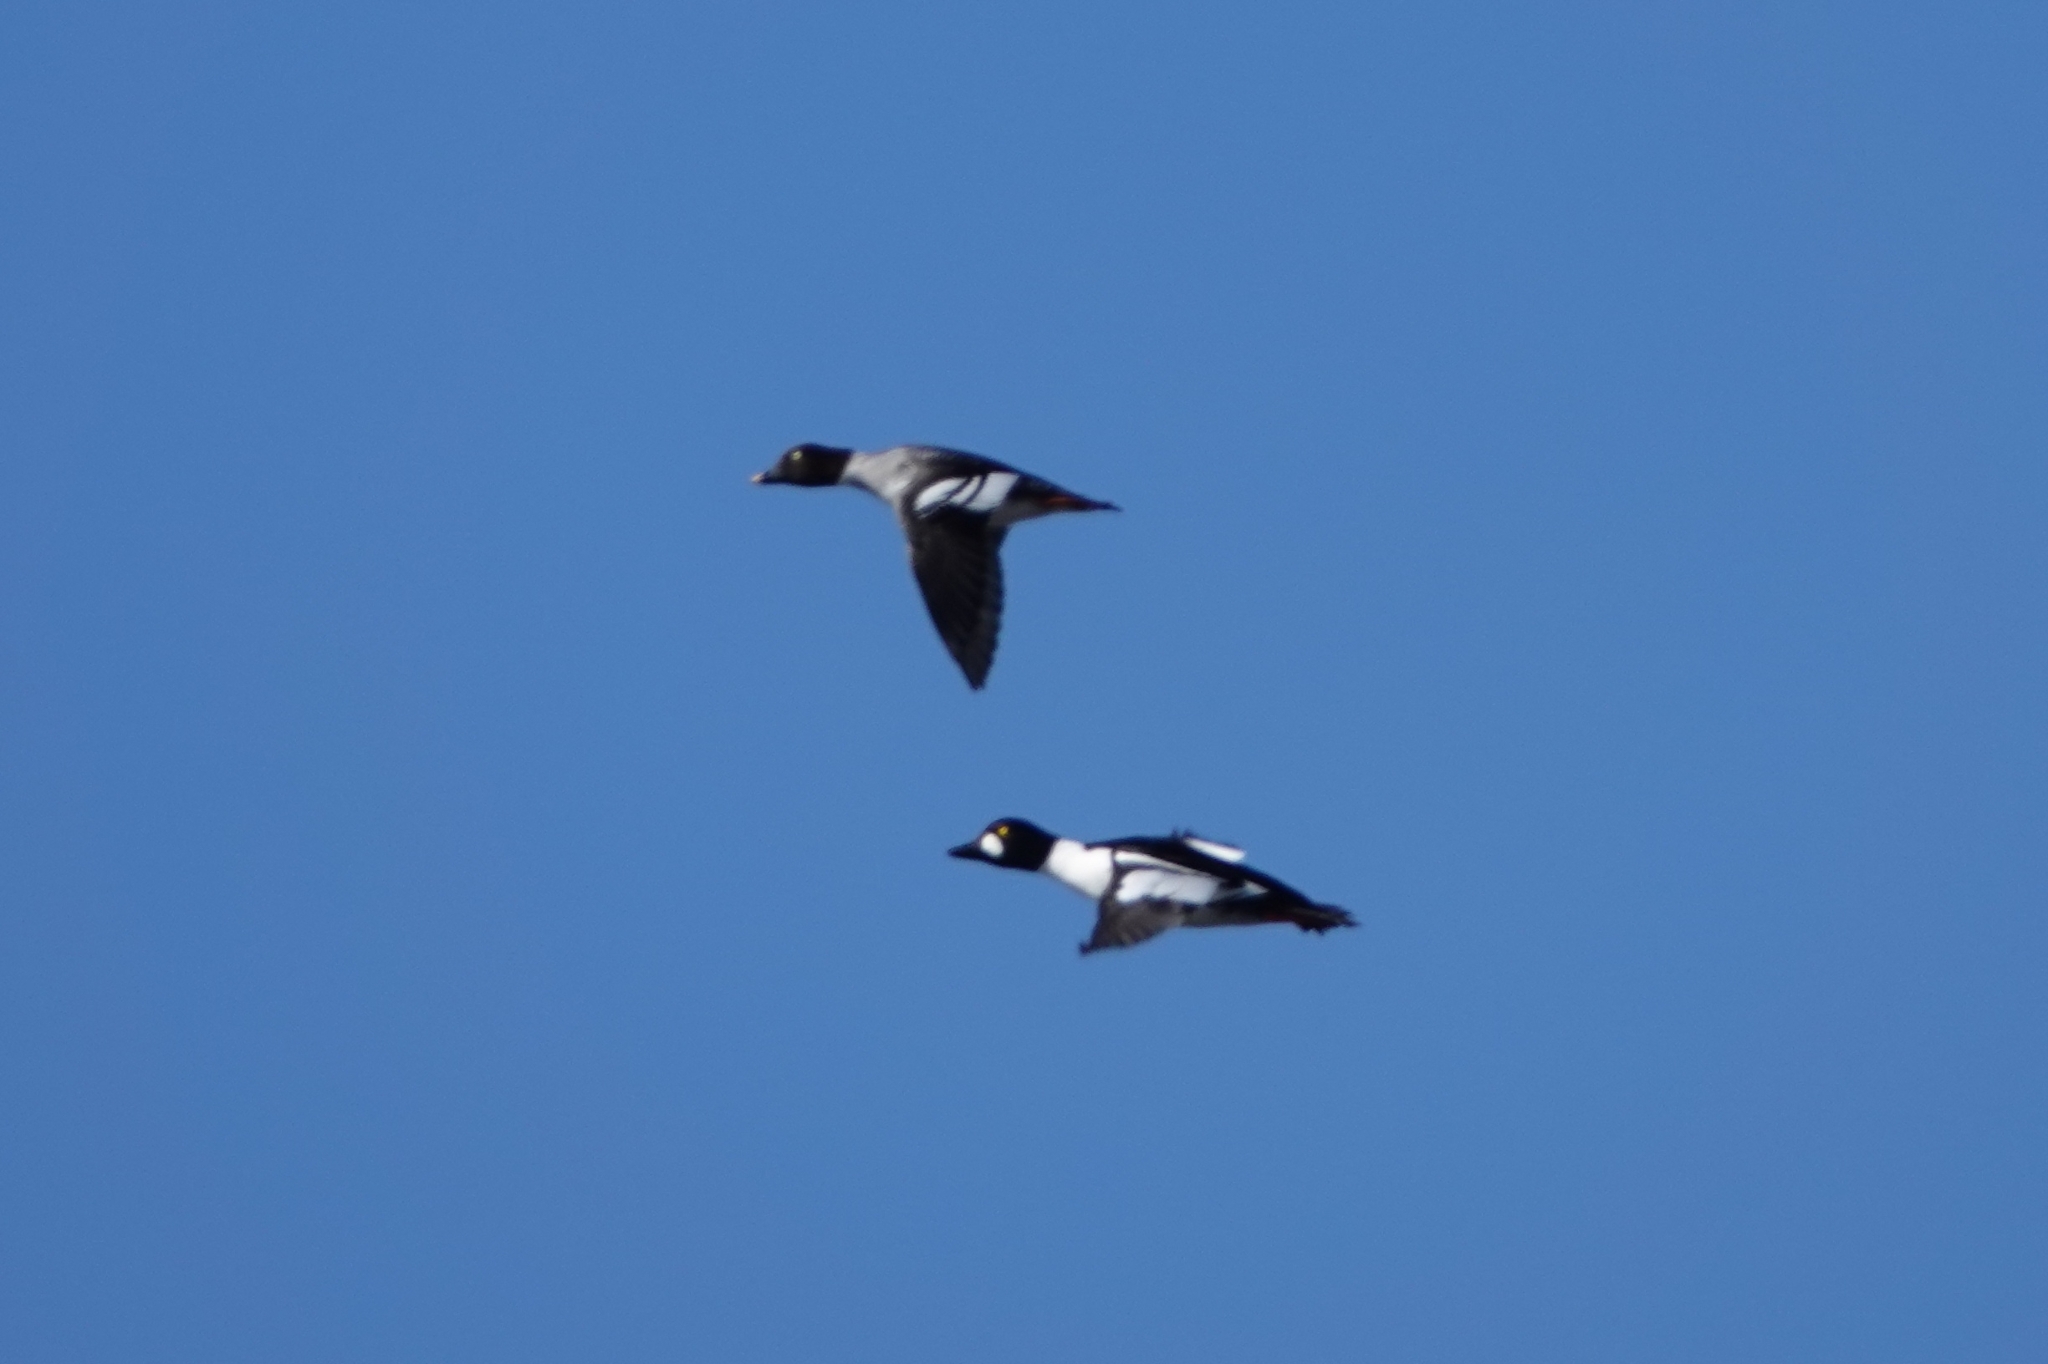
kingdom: Animalia
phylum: Chordata
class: Aves
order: Anseriformes
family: Anatidae
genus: Bucephala
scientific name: Bucephala clangula
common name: Common goldeneye
